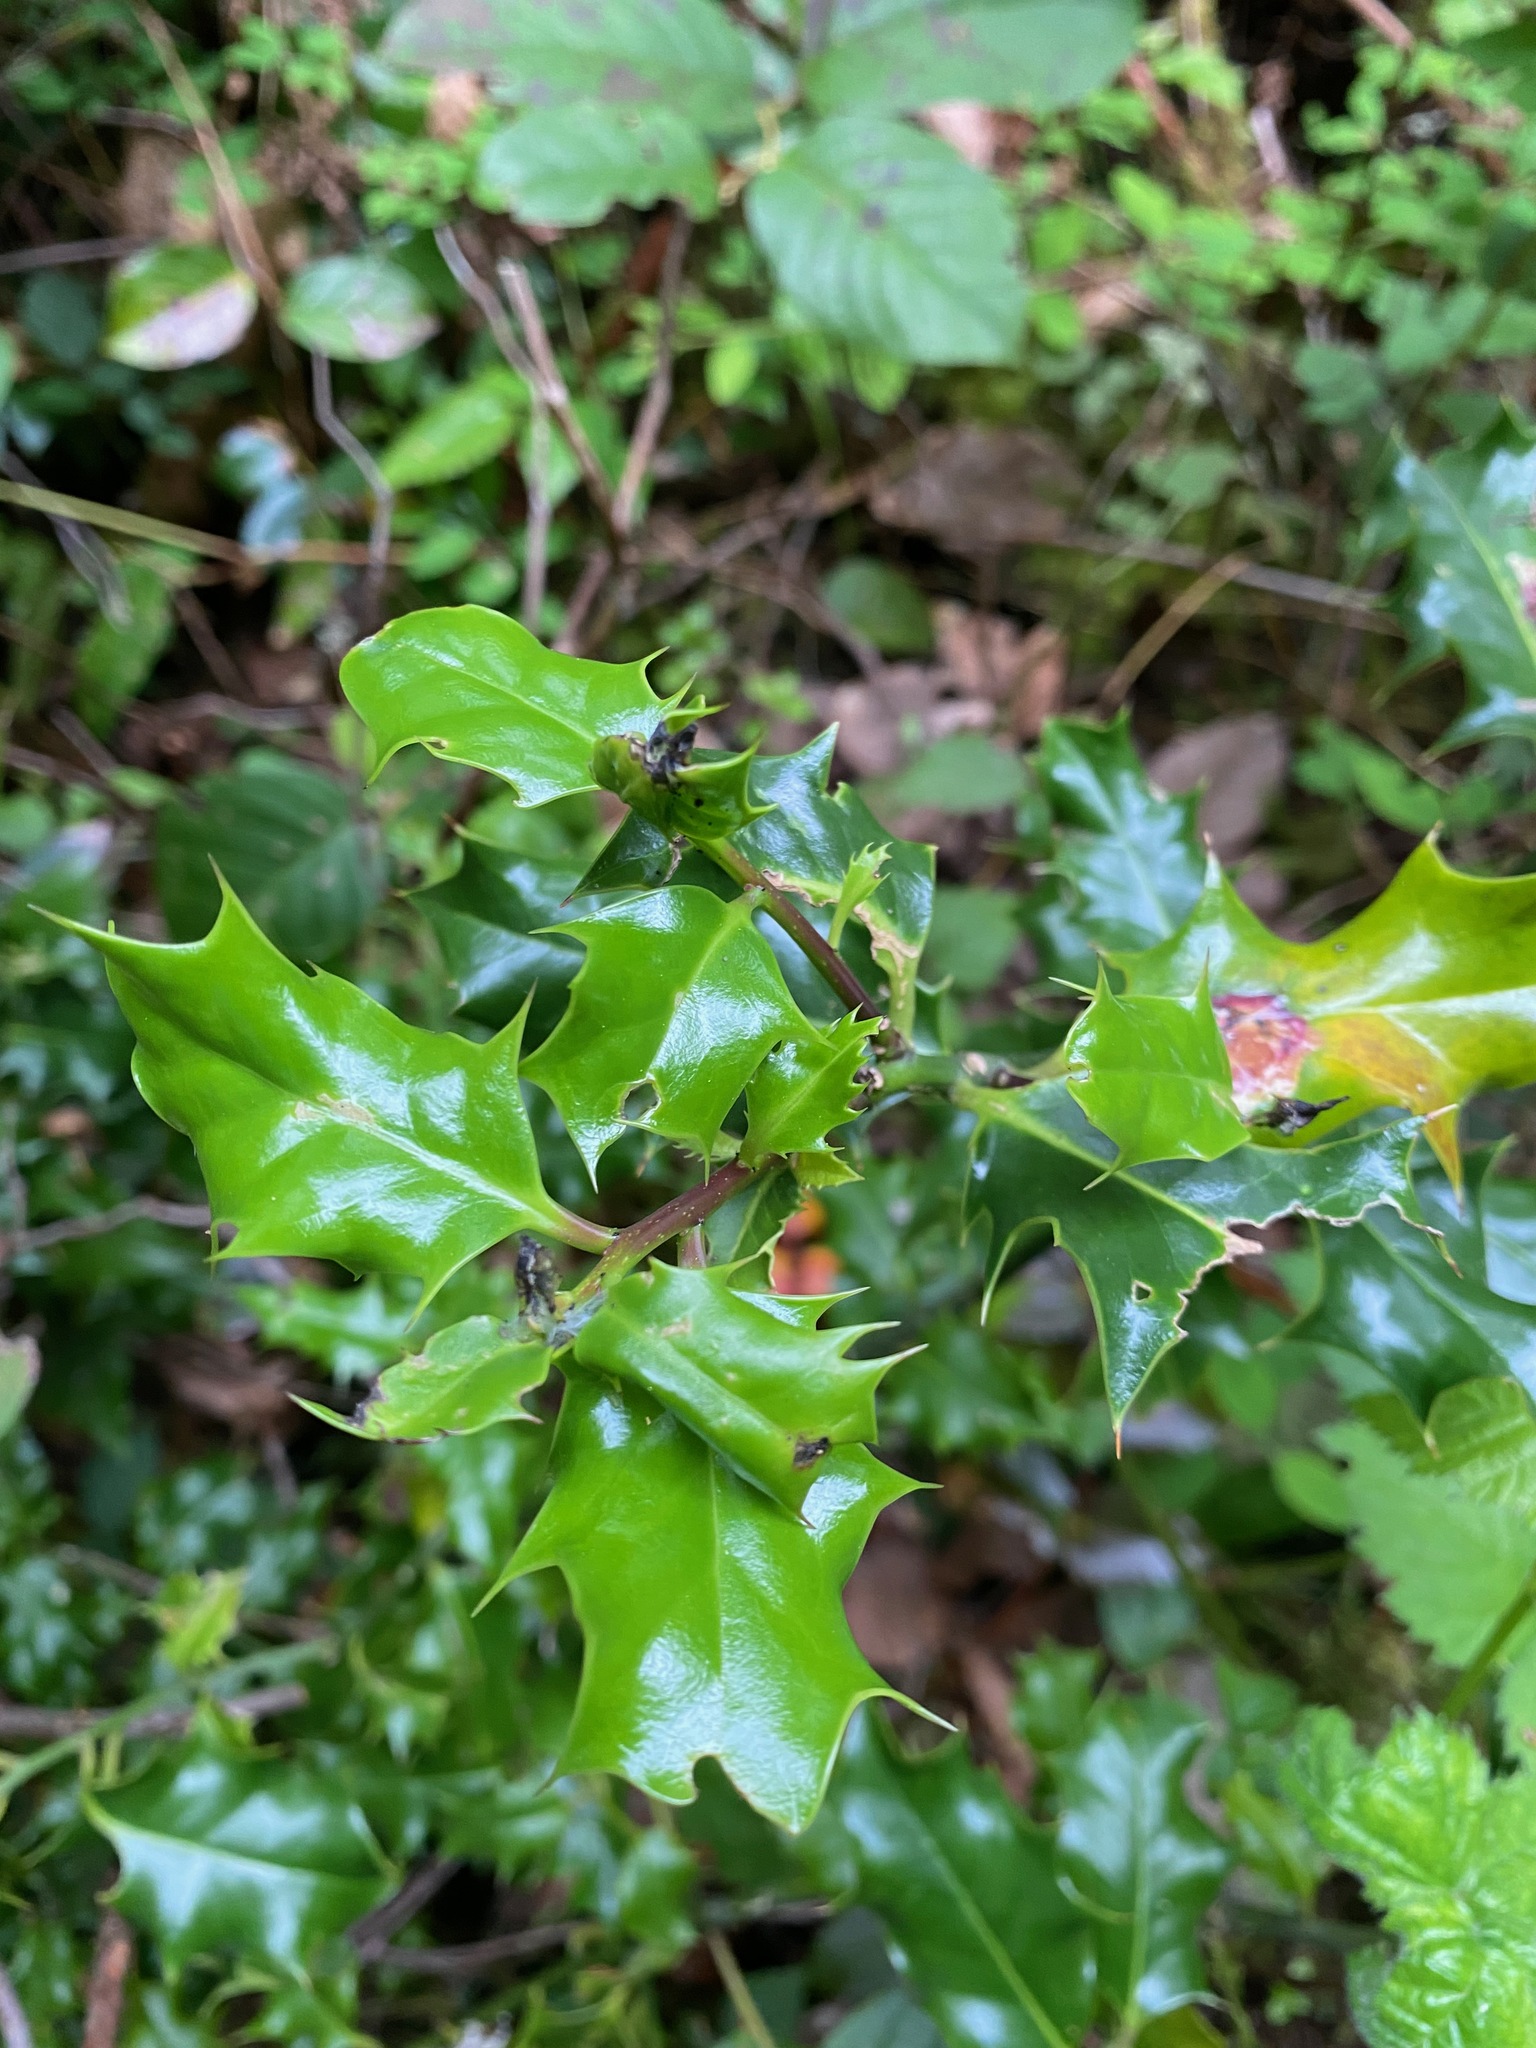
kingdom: Plantae
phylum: Tracheophyta
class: Magnoliopsida
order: Aquifoliales
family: Aquifoliaceae
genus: Ilex
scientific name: Ilex aquifolium
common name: English holly
